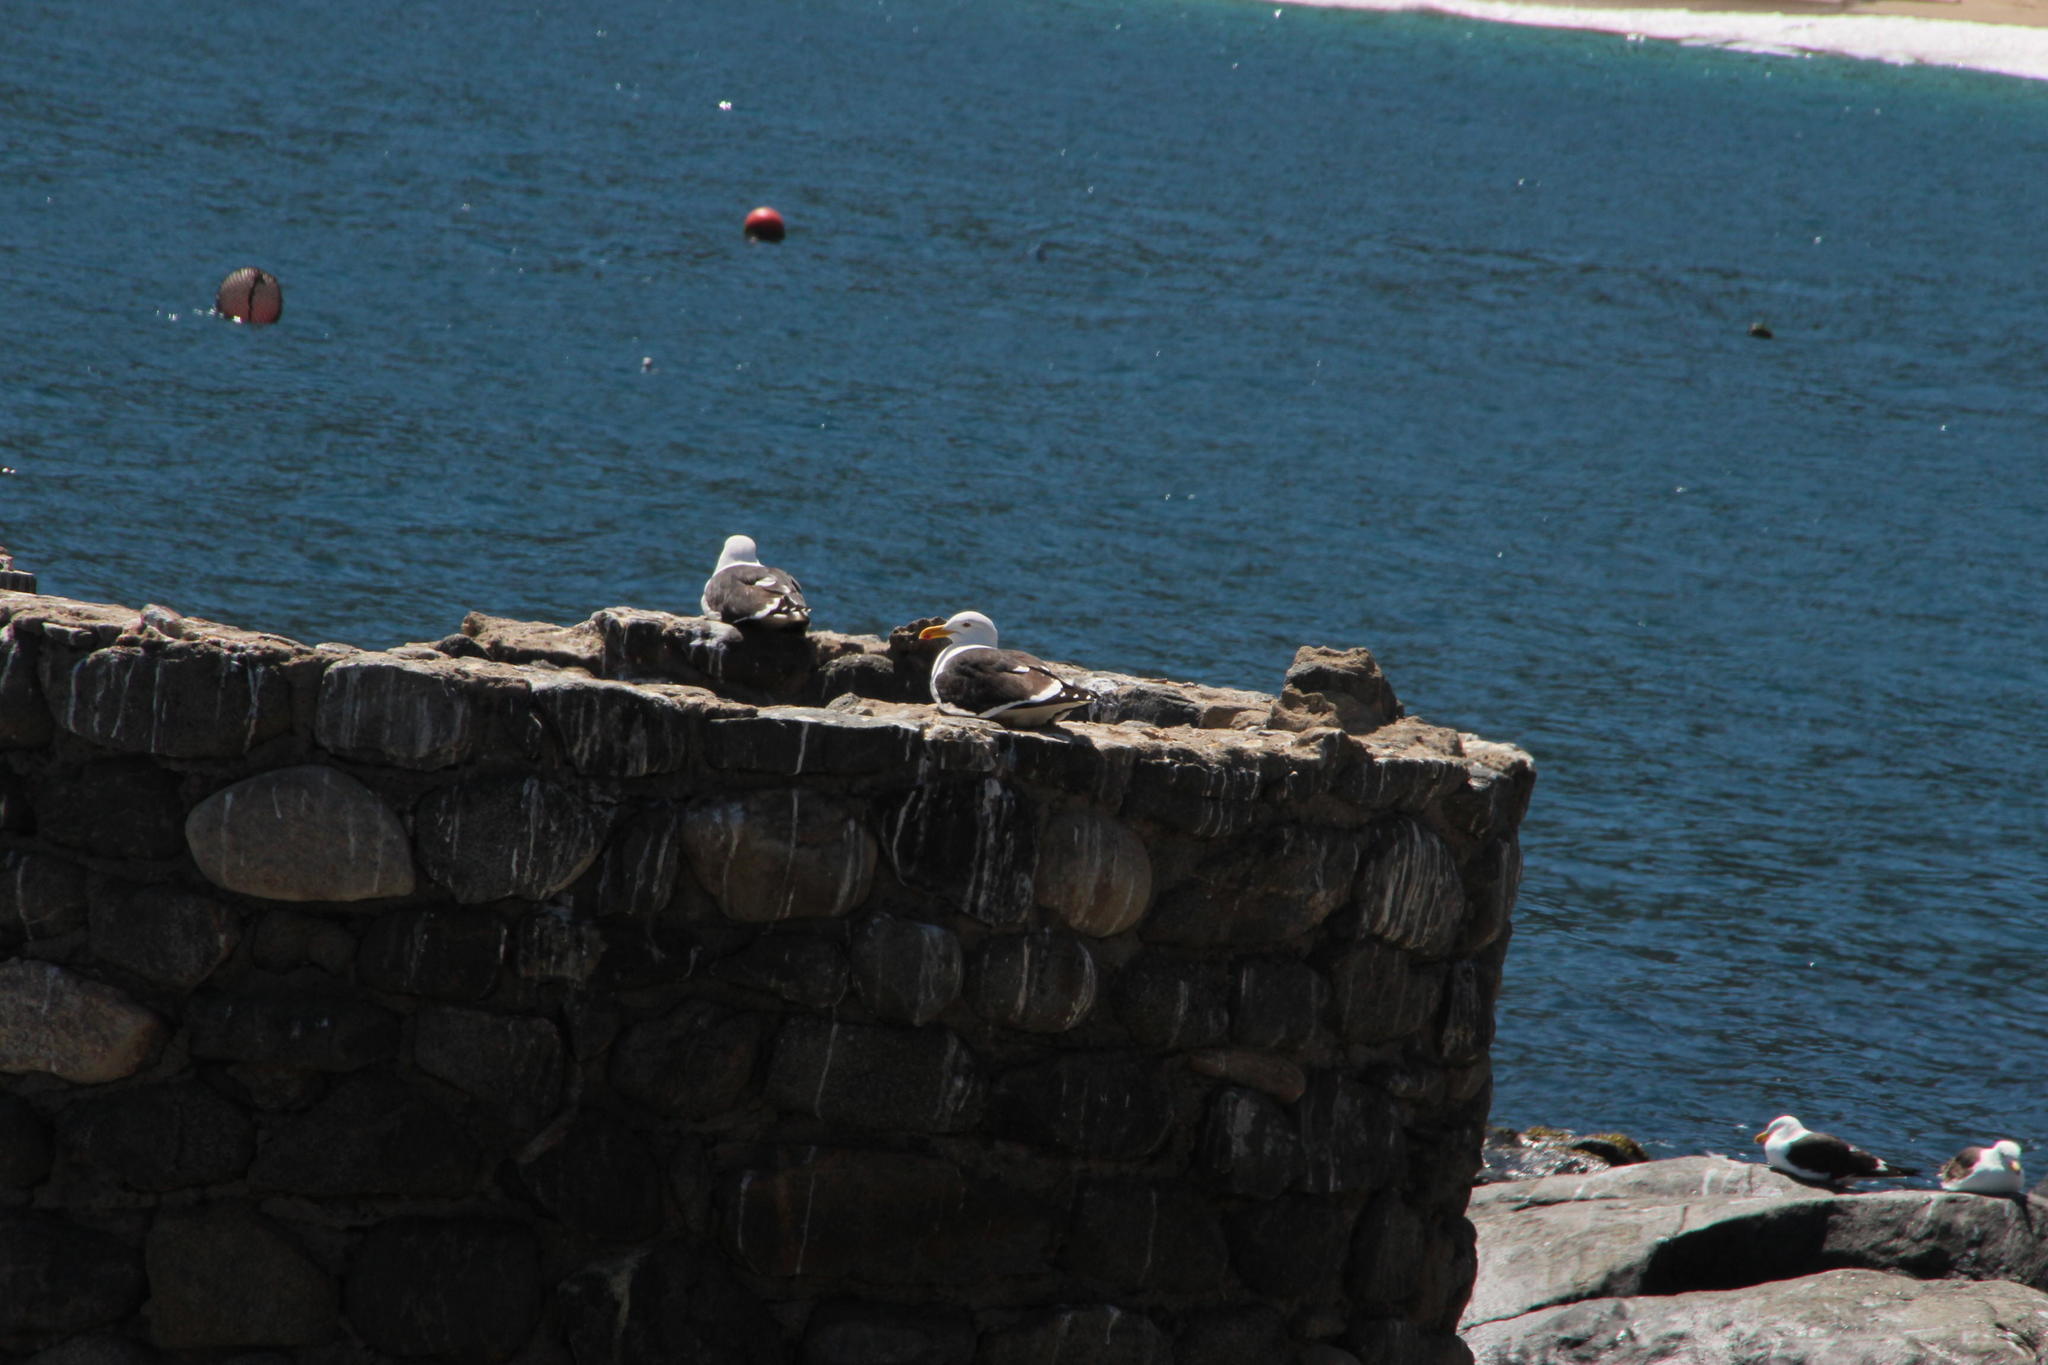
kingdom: Animalia
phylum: Chordata
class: Aves
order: Charadriiformes
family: Laridae
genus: Larus
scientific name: Larus dominicanus
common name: Kelp gull
